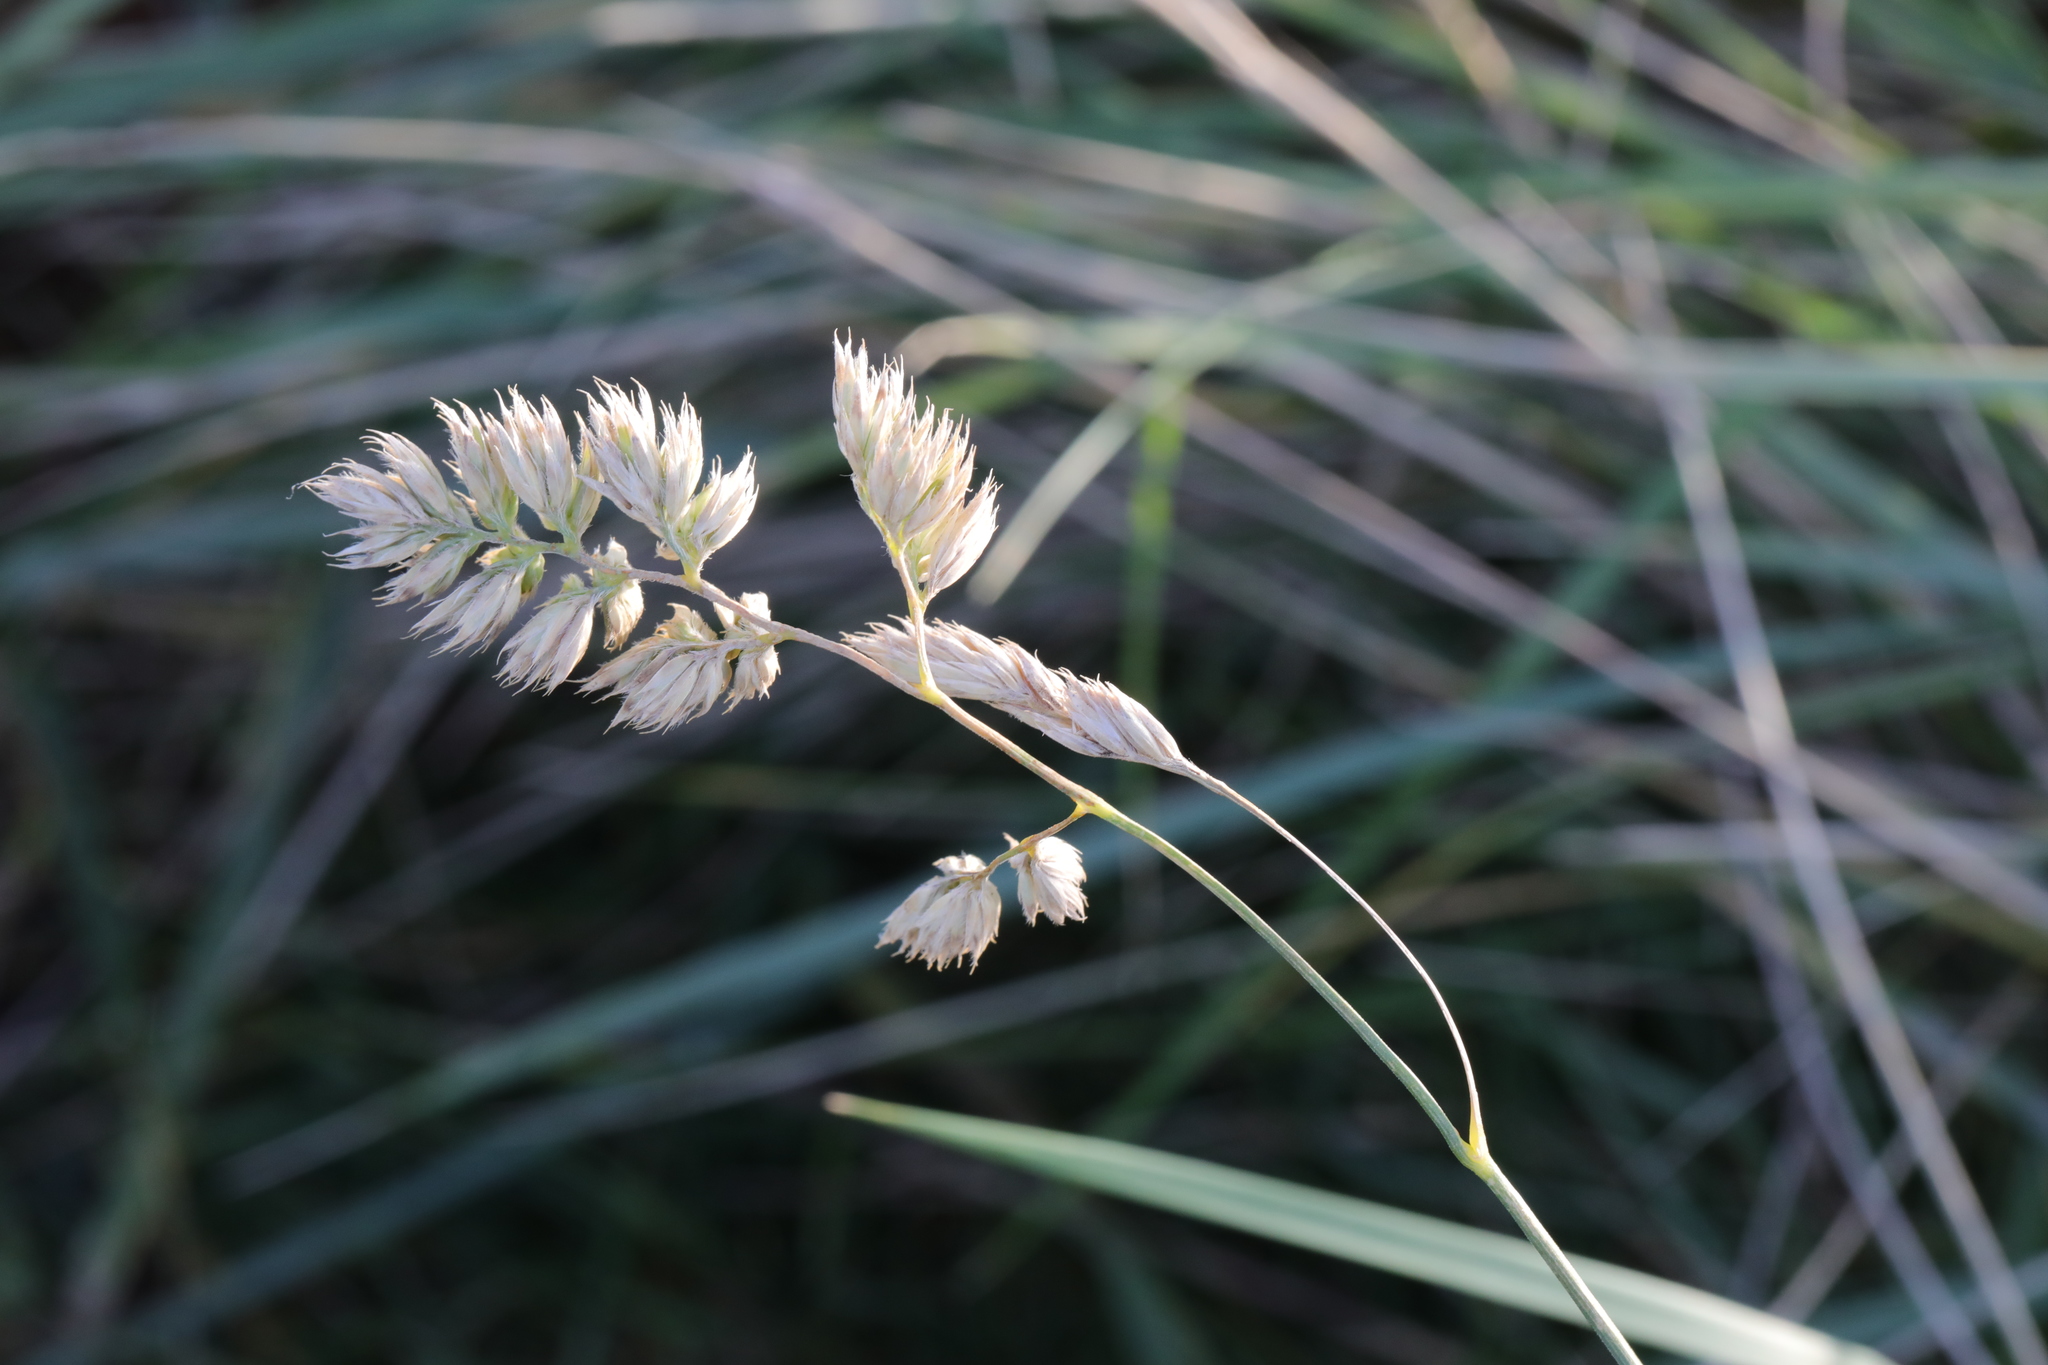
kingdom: Plantae
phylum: Tracheophyta
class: Liliopsida
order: Poales
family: Poaceae
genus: Dactylis
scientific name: Dactylis glomerata
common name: Orchardgrass
